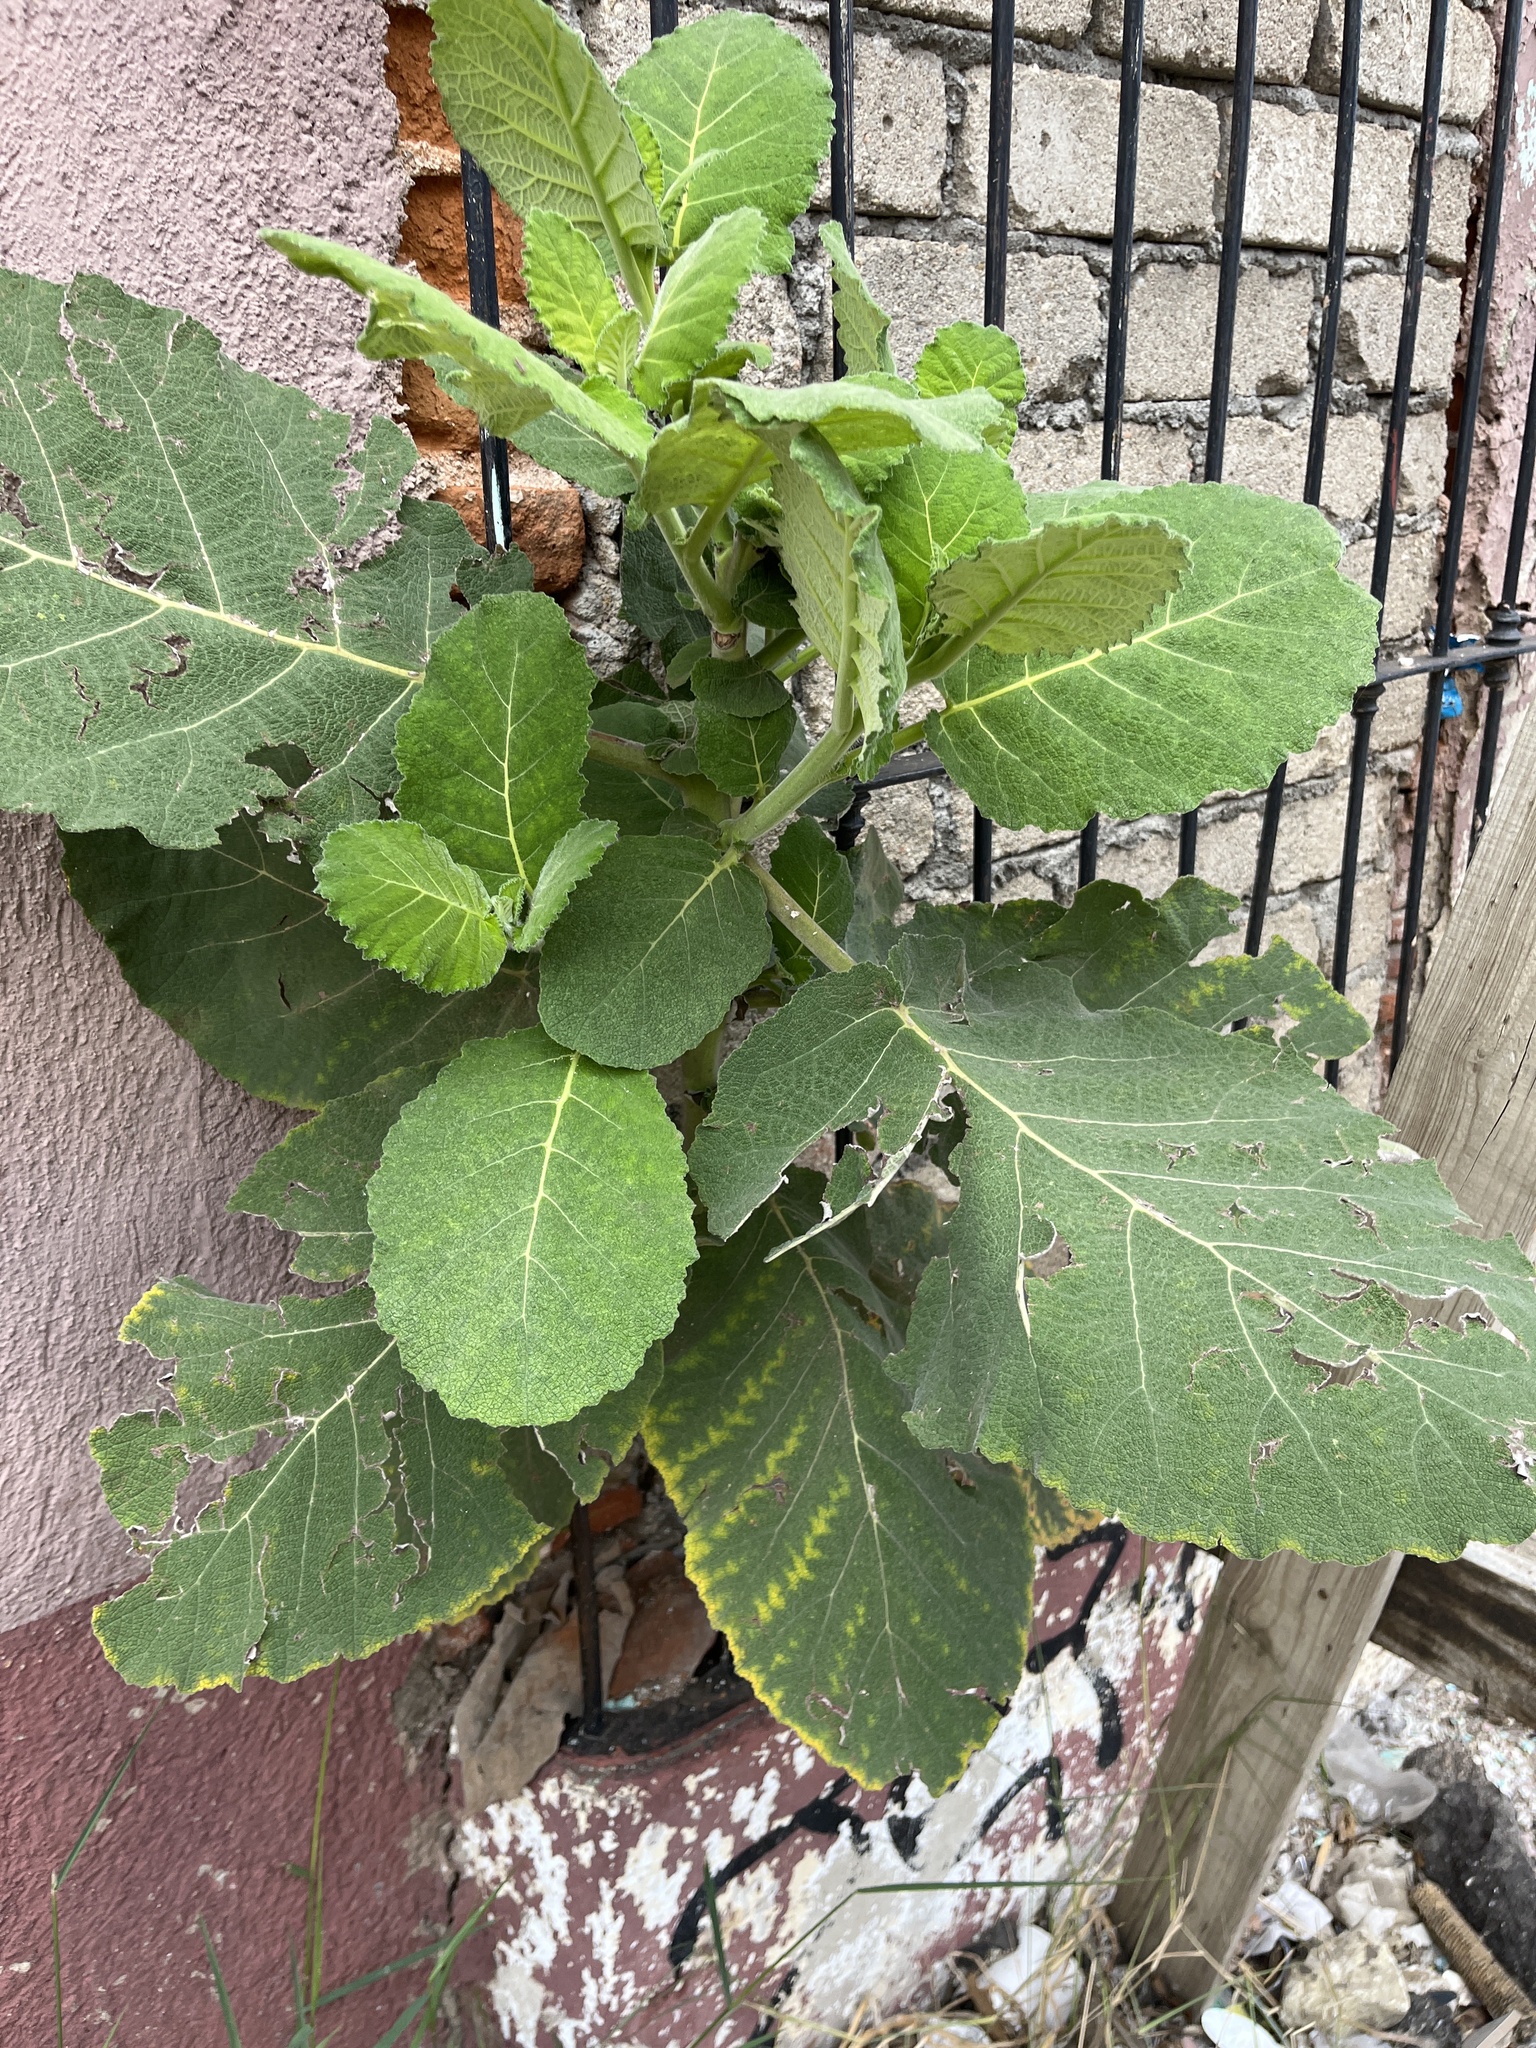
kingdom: Plantae
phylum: Tracheophyta
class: Magnoliopsida
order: Boraginales
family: Namaceae
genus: Wigandia
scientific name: Wigandia urens
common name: Caracus wigandia
